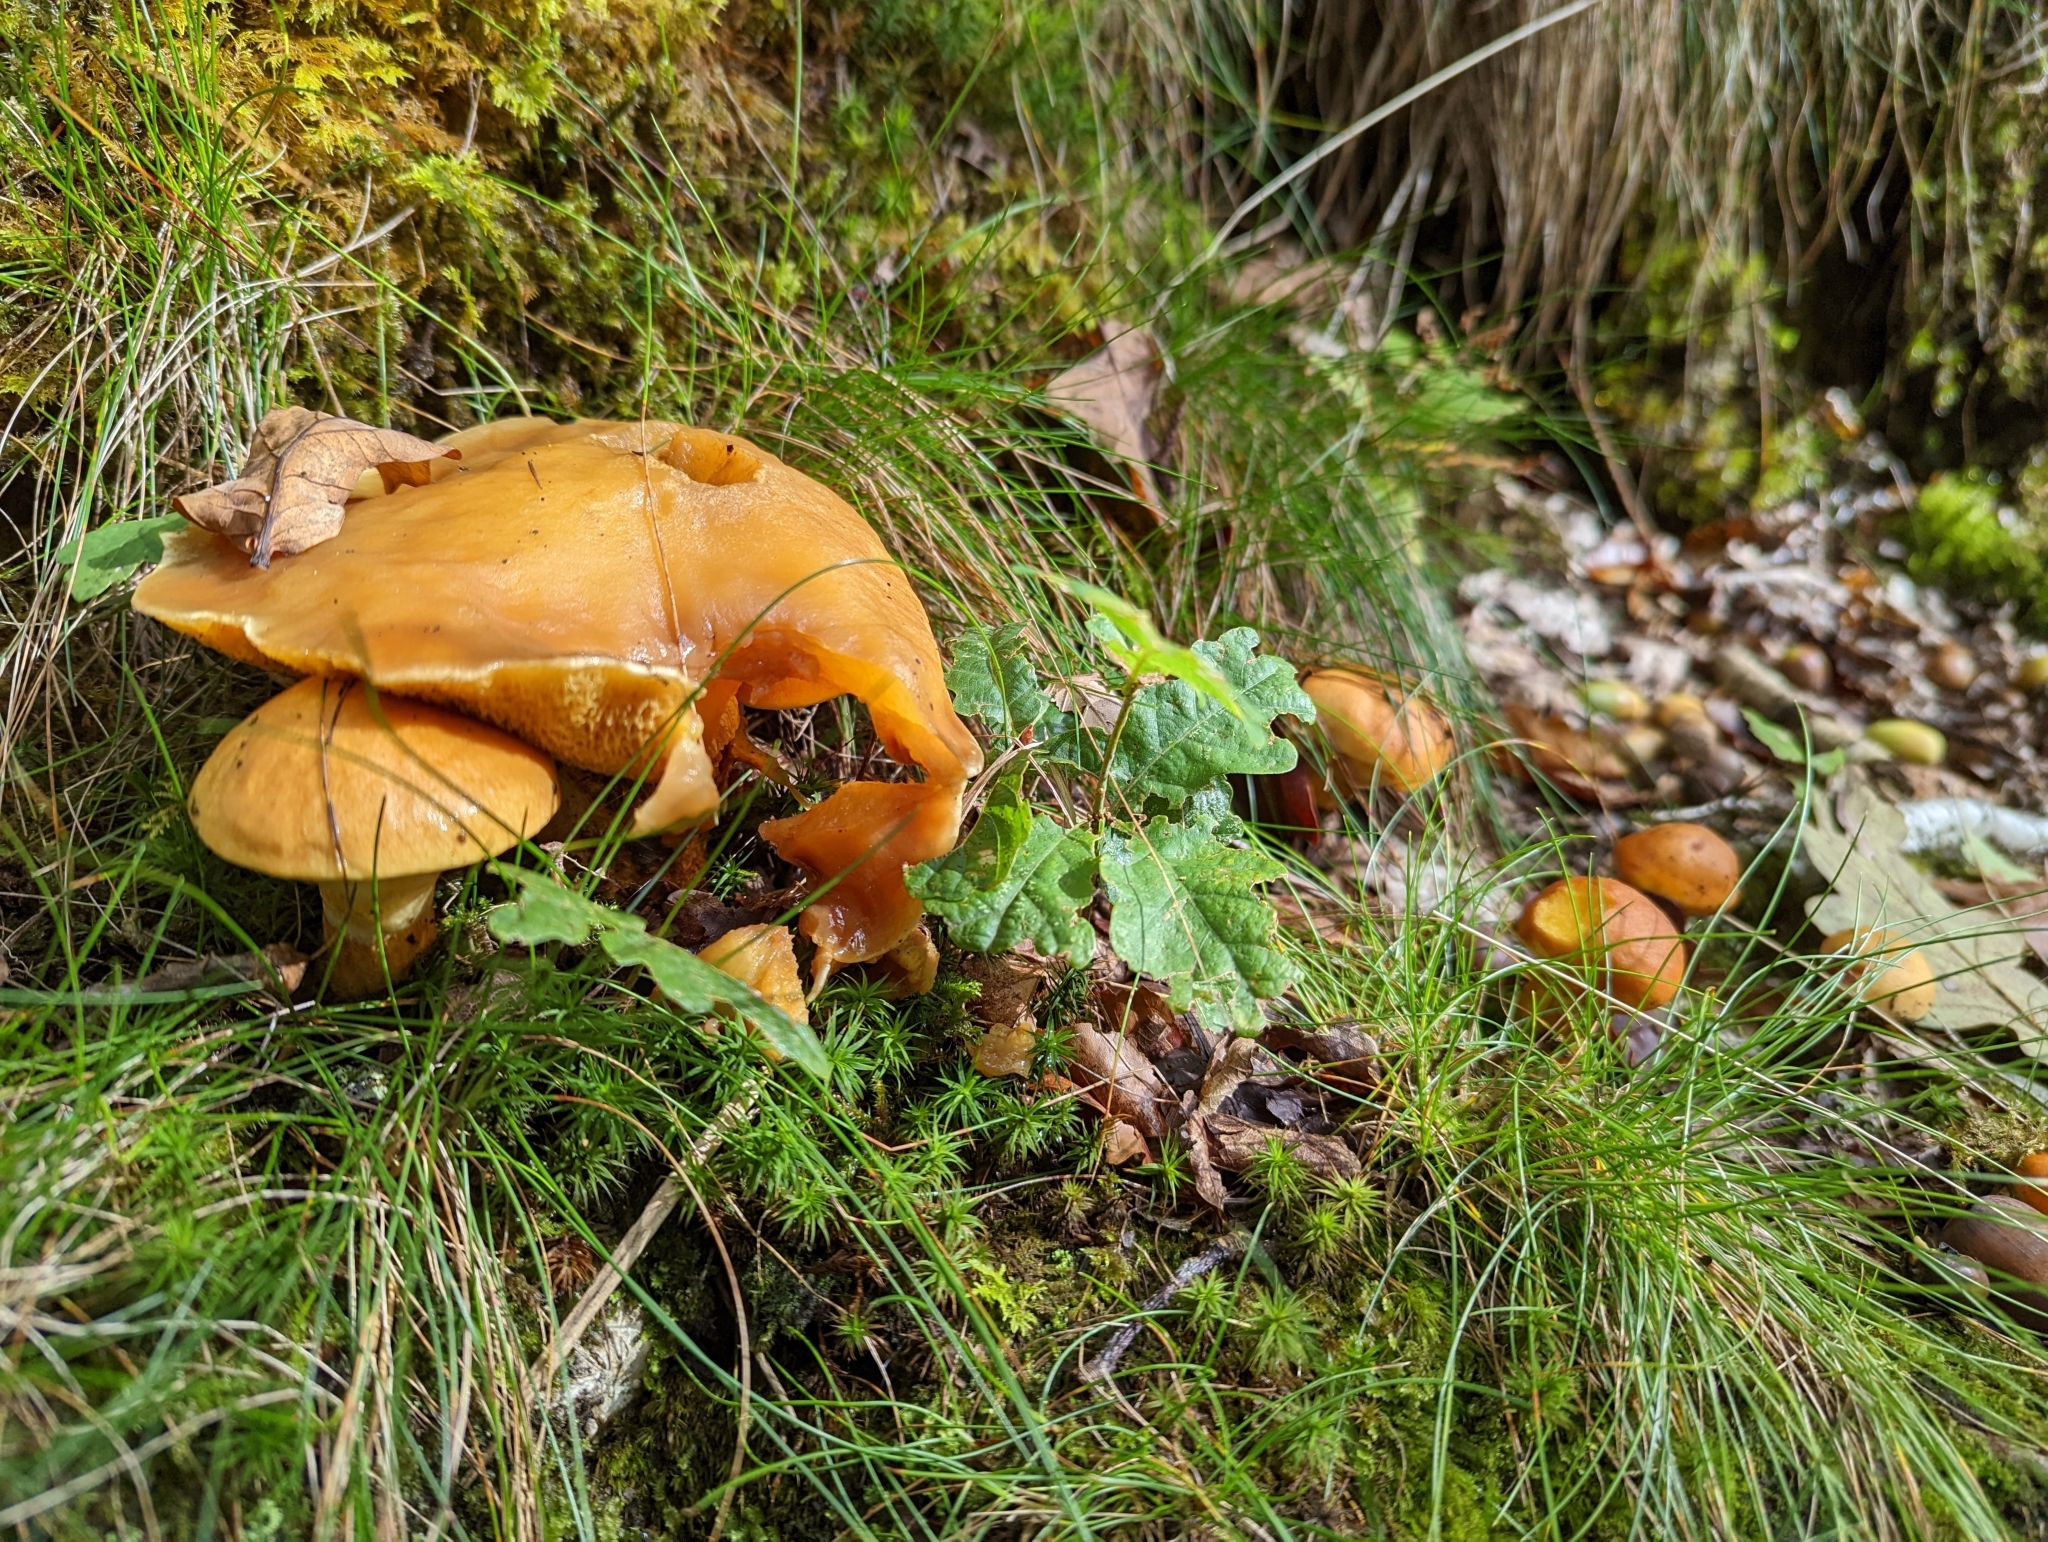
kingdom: Fungi
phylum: Basidiomycota
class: Agaricomycetes
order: Boletales
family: Suillaceae
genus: Suillus
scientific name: Suillus grevillei
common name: Larch bolete
